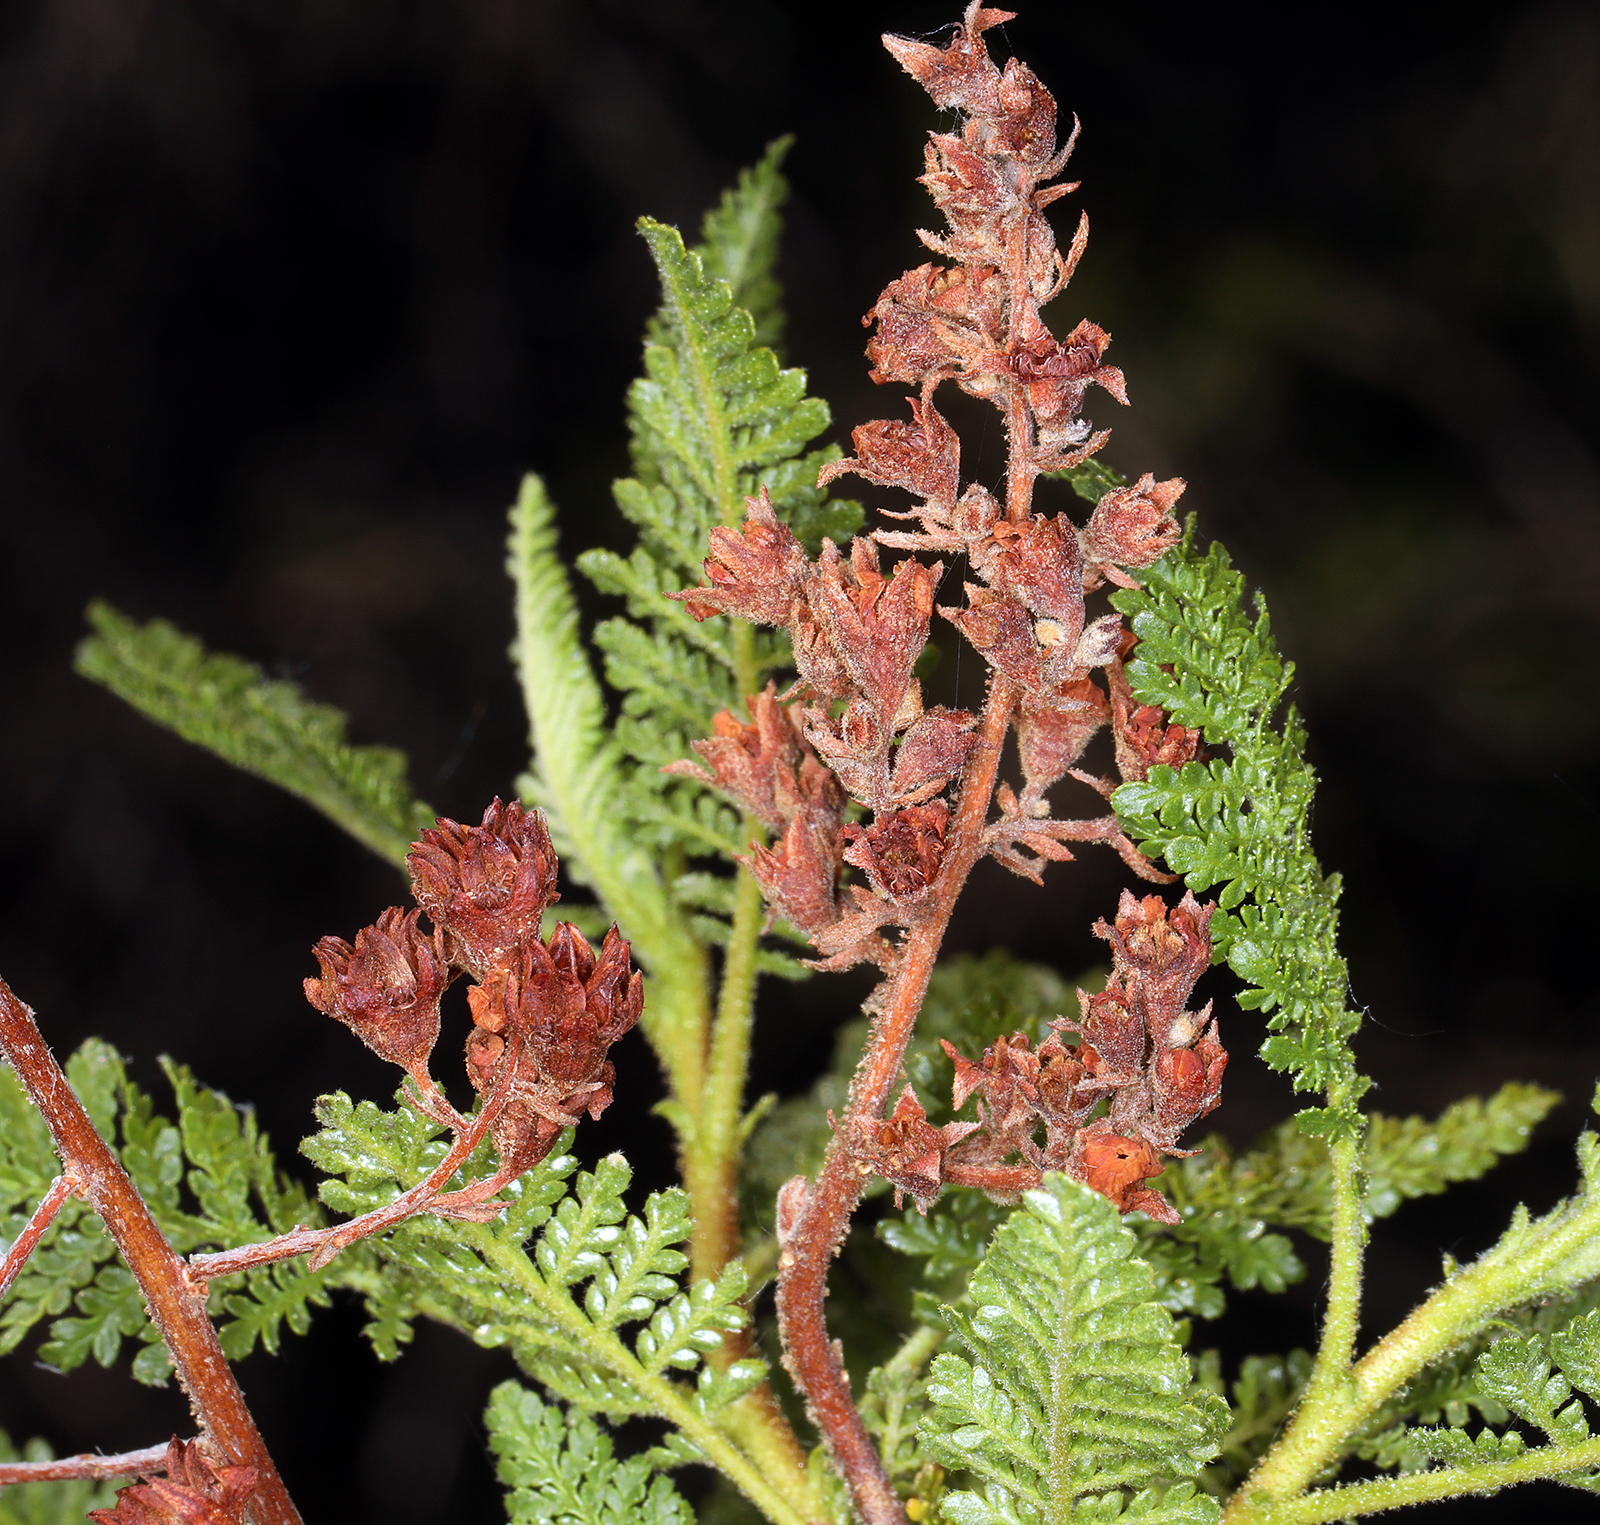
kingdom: Plantae
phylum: Tracheophyta
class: Magnoliopsida
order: Rosales
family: Rosaceae
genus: Chamaebatiaria
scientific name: Chamaebatiaria millefolium
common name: Fernbush
